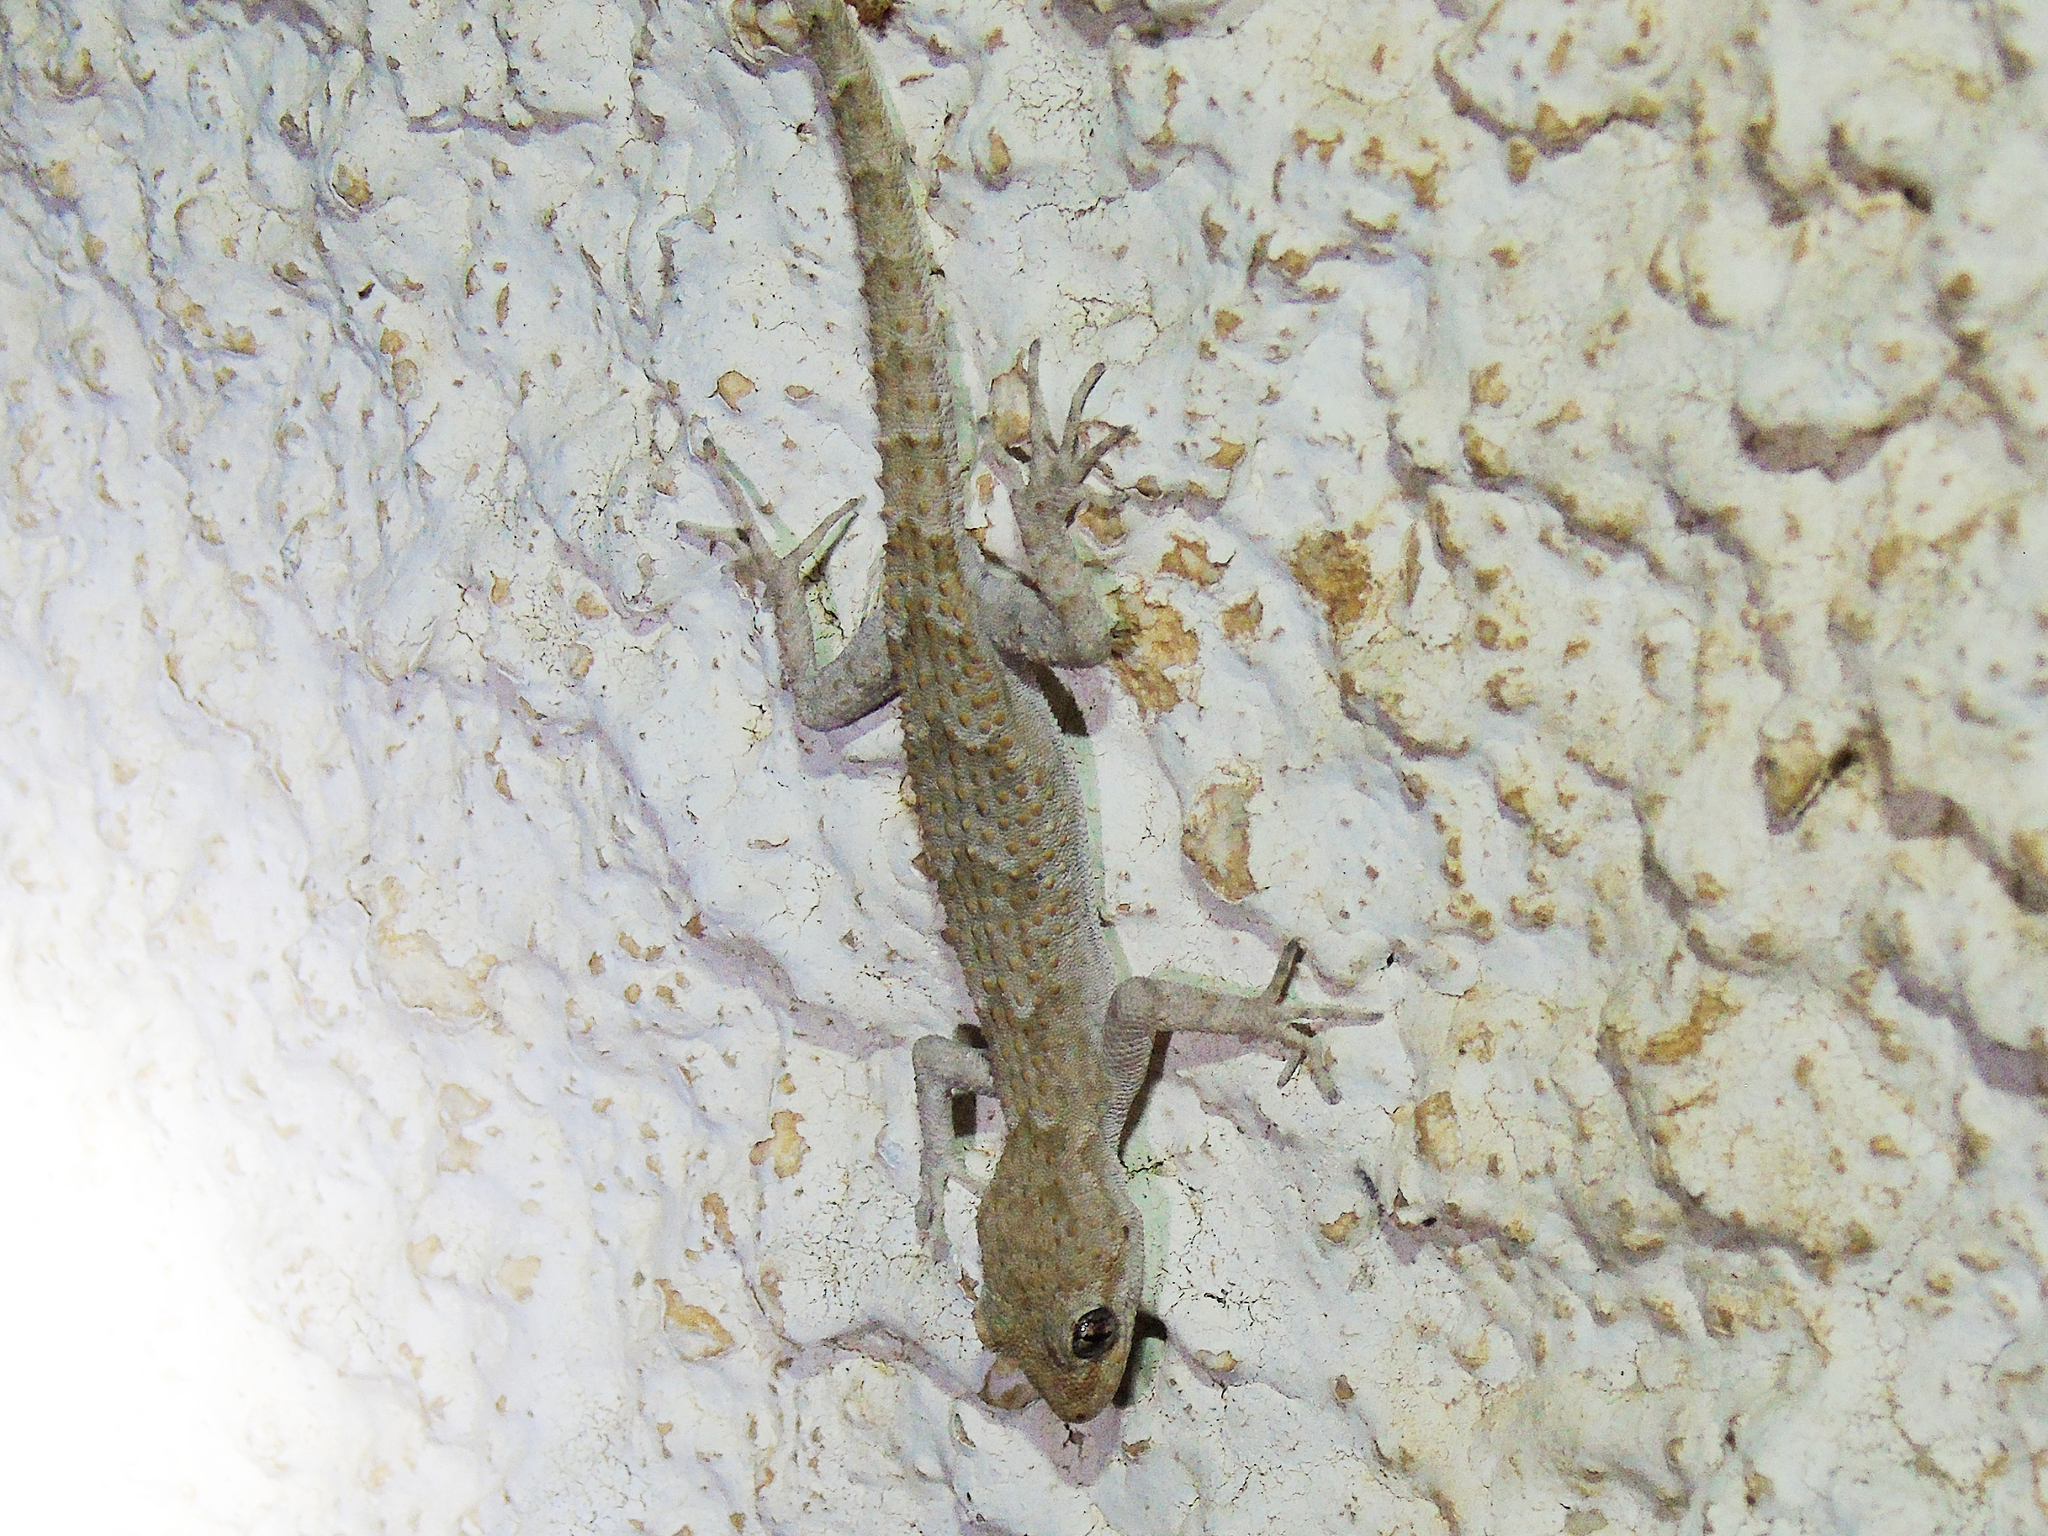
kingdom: Animalia
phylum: Chordata
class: Squamata
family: Gekkonidae
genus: Mediodactylus
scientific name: Mediodactylus kotschyi
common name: Kotschy's gecko
